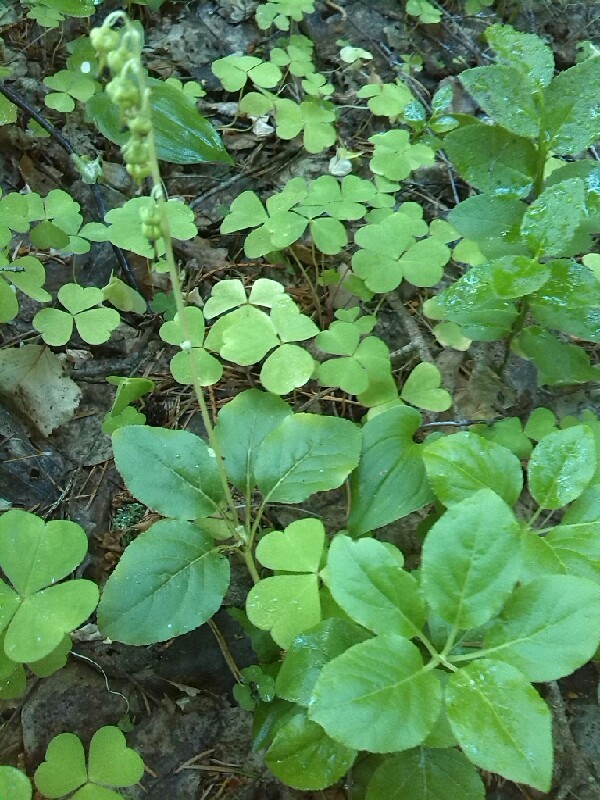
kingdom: Plantae
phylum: Tracheophyta
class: Magnoliopsida
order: Ericales
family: Ericaceae
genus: Orthilia
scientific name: Orthilia secunda
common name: One-sided orthilia
